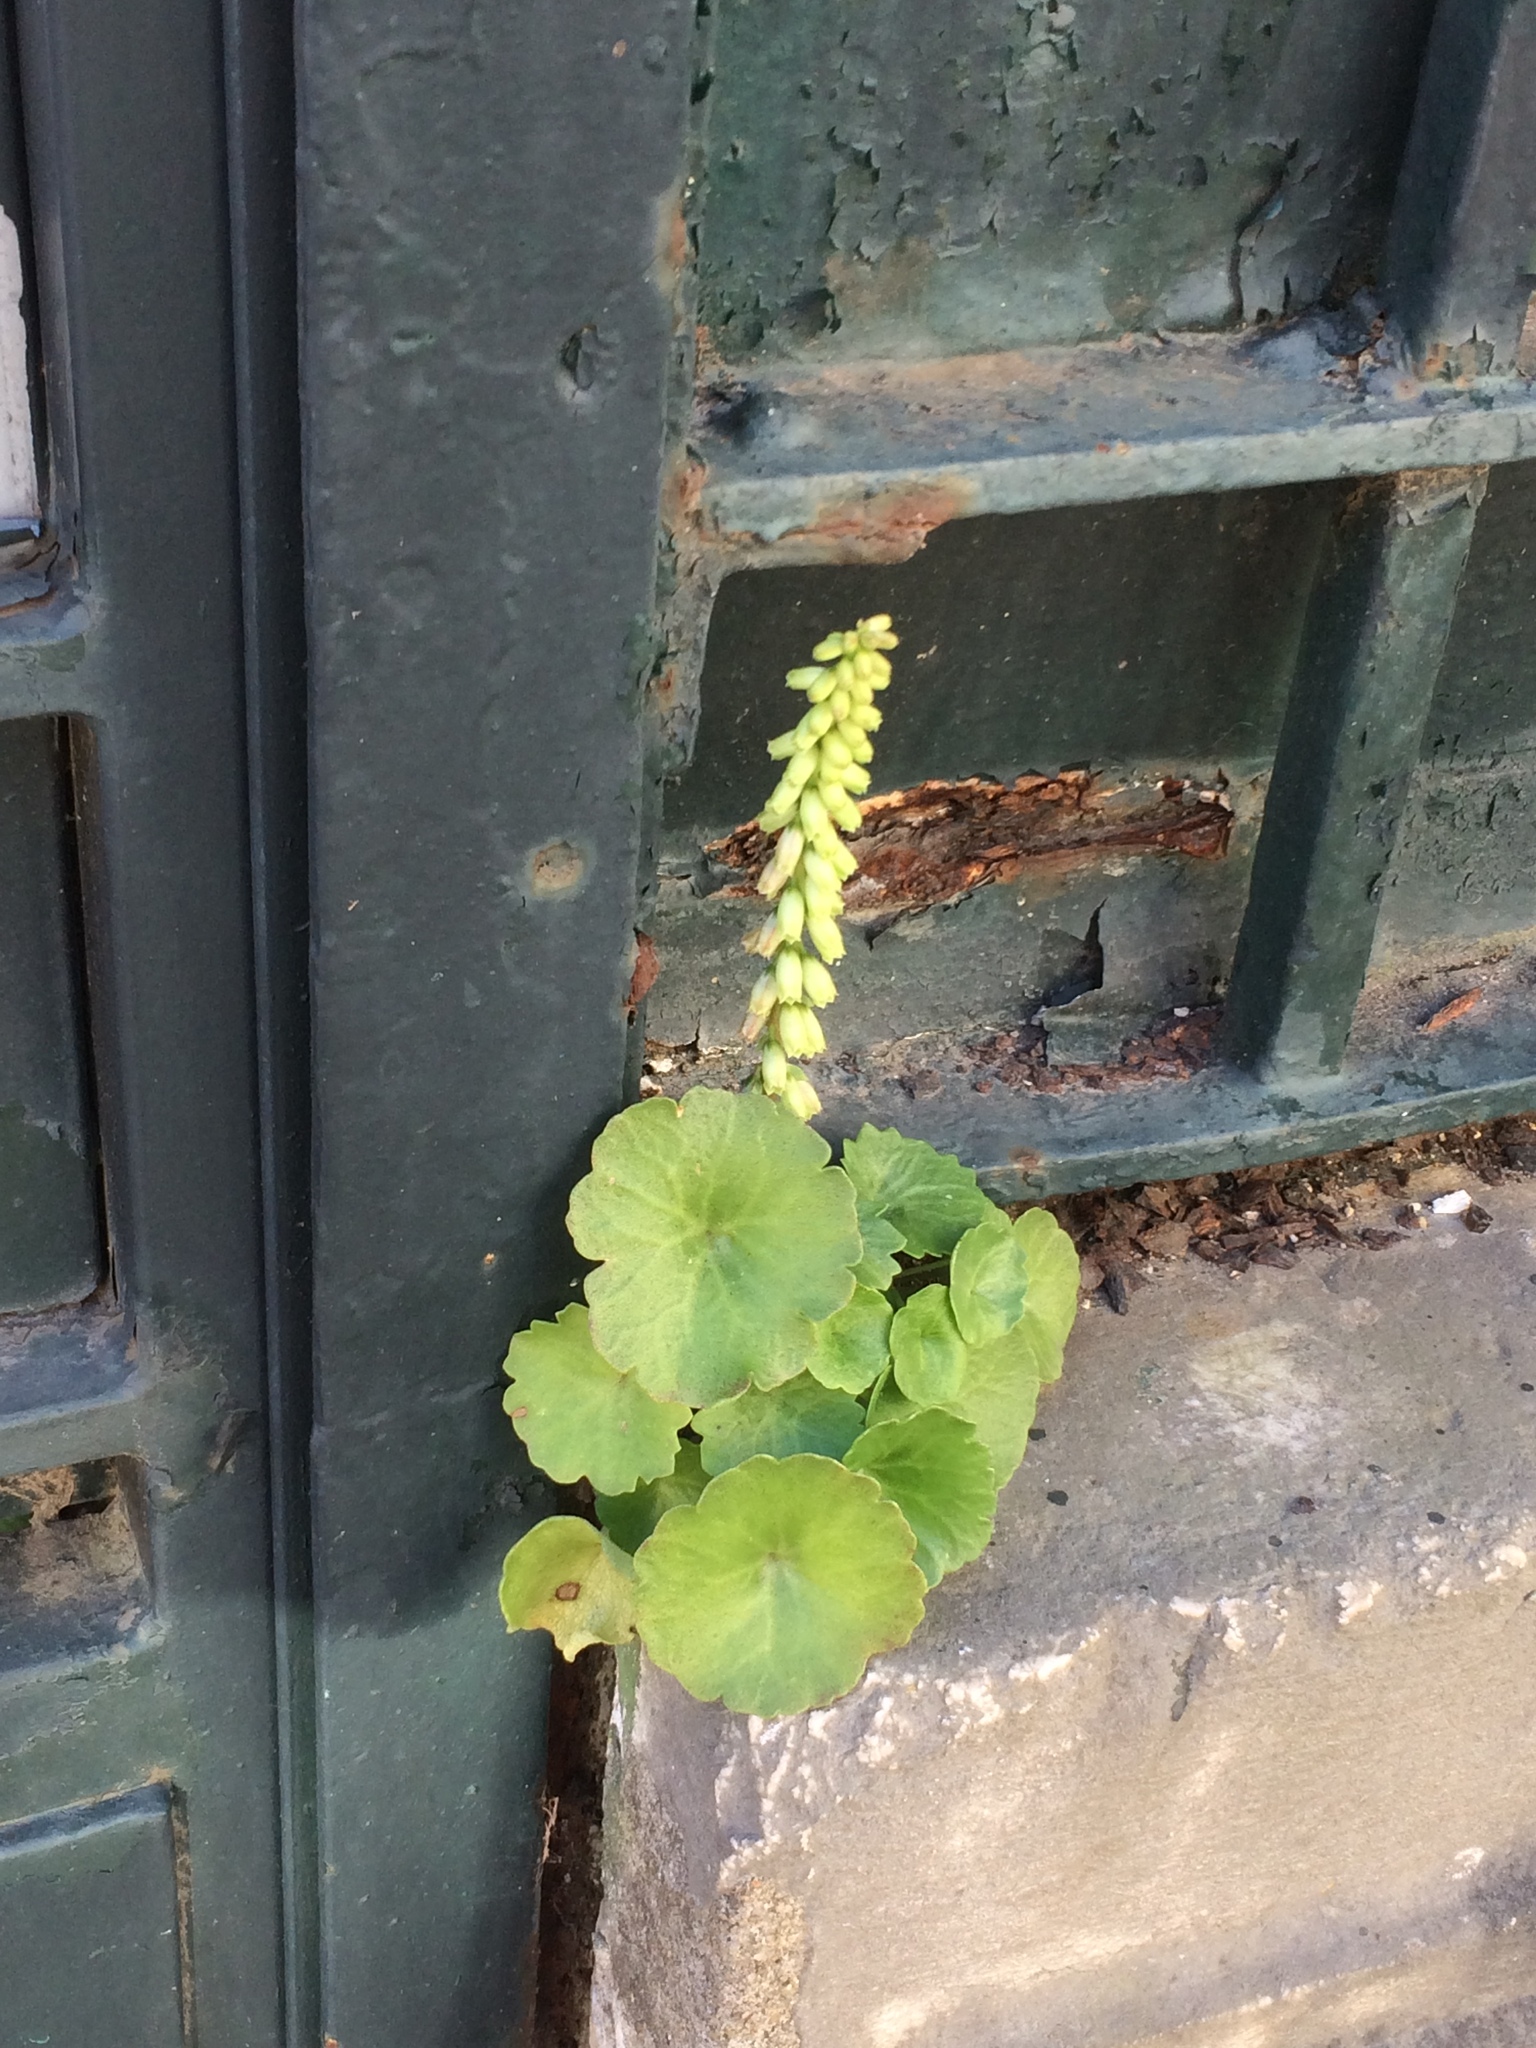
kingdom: Plantae
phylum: Tracheophyta
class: Magnoliopsida
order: Saxifragales
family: Crassulaceae
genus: Umbilicus
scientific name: Umbilicus rupestris
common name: Navelwort
